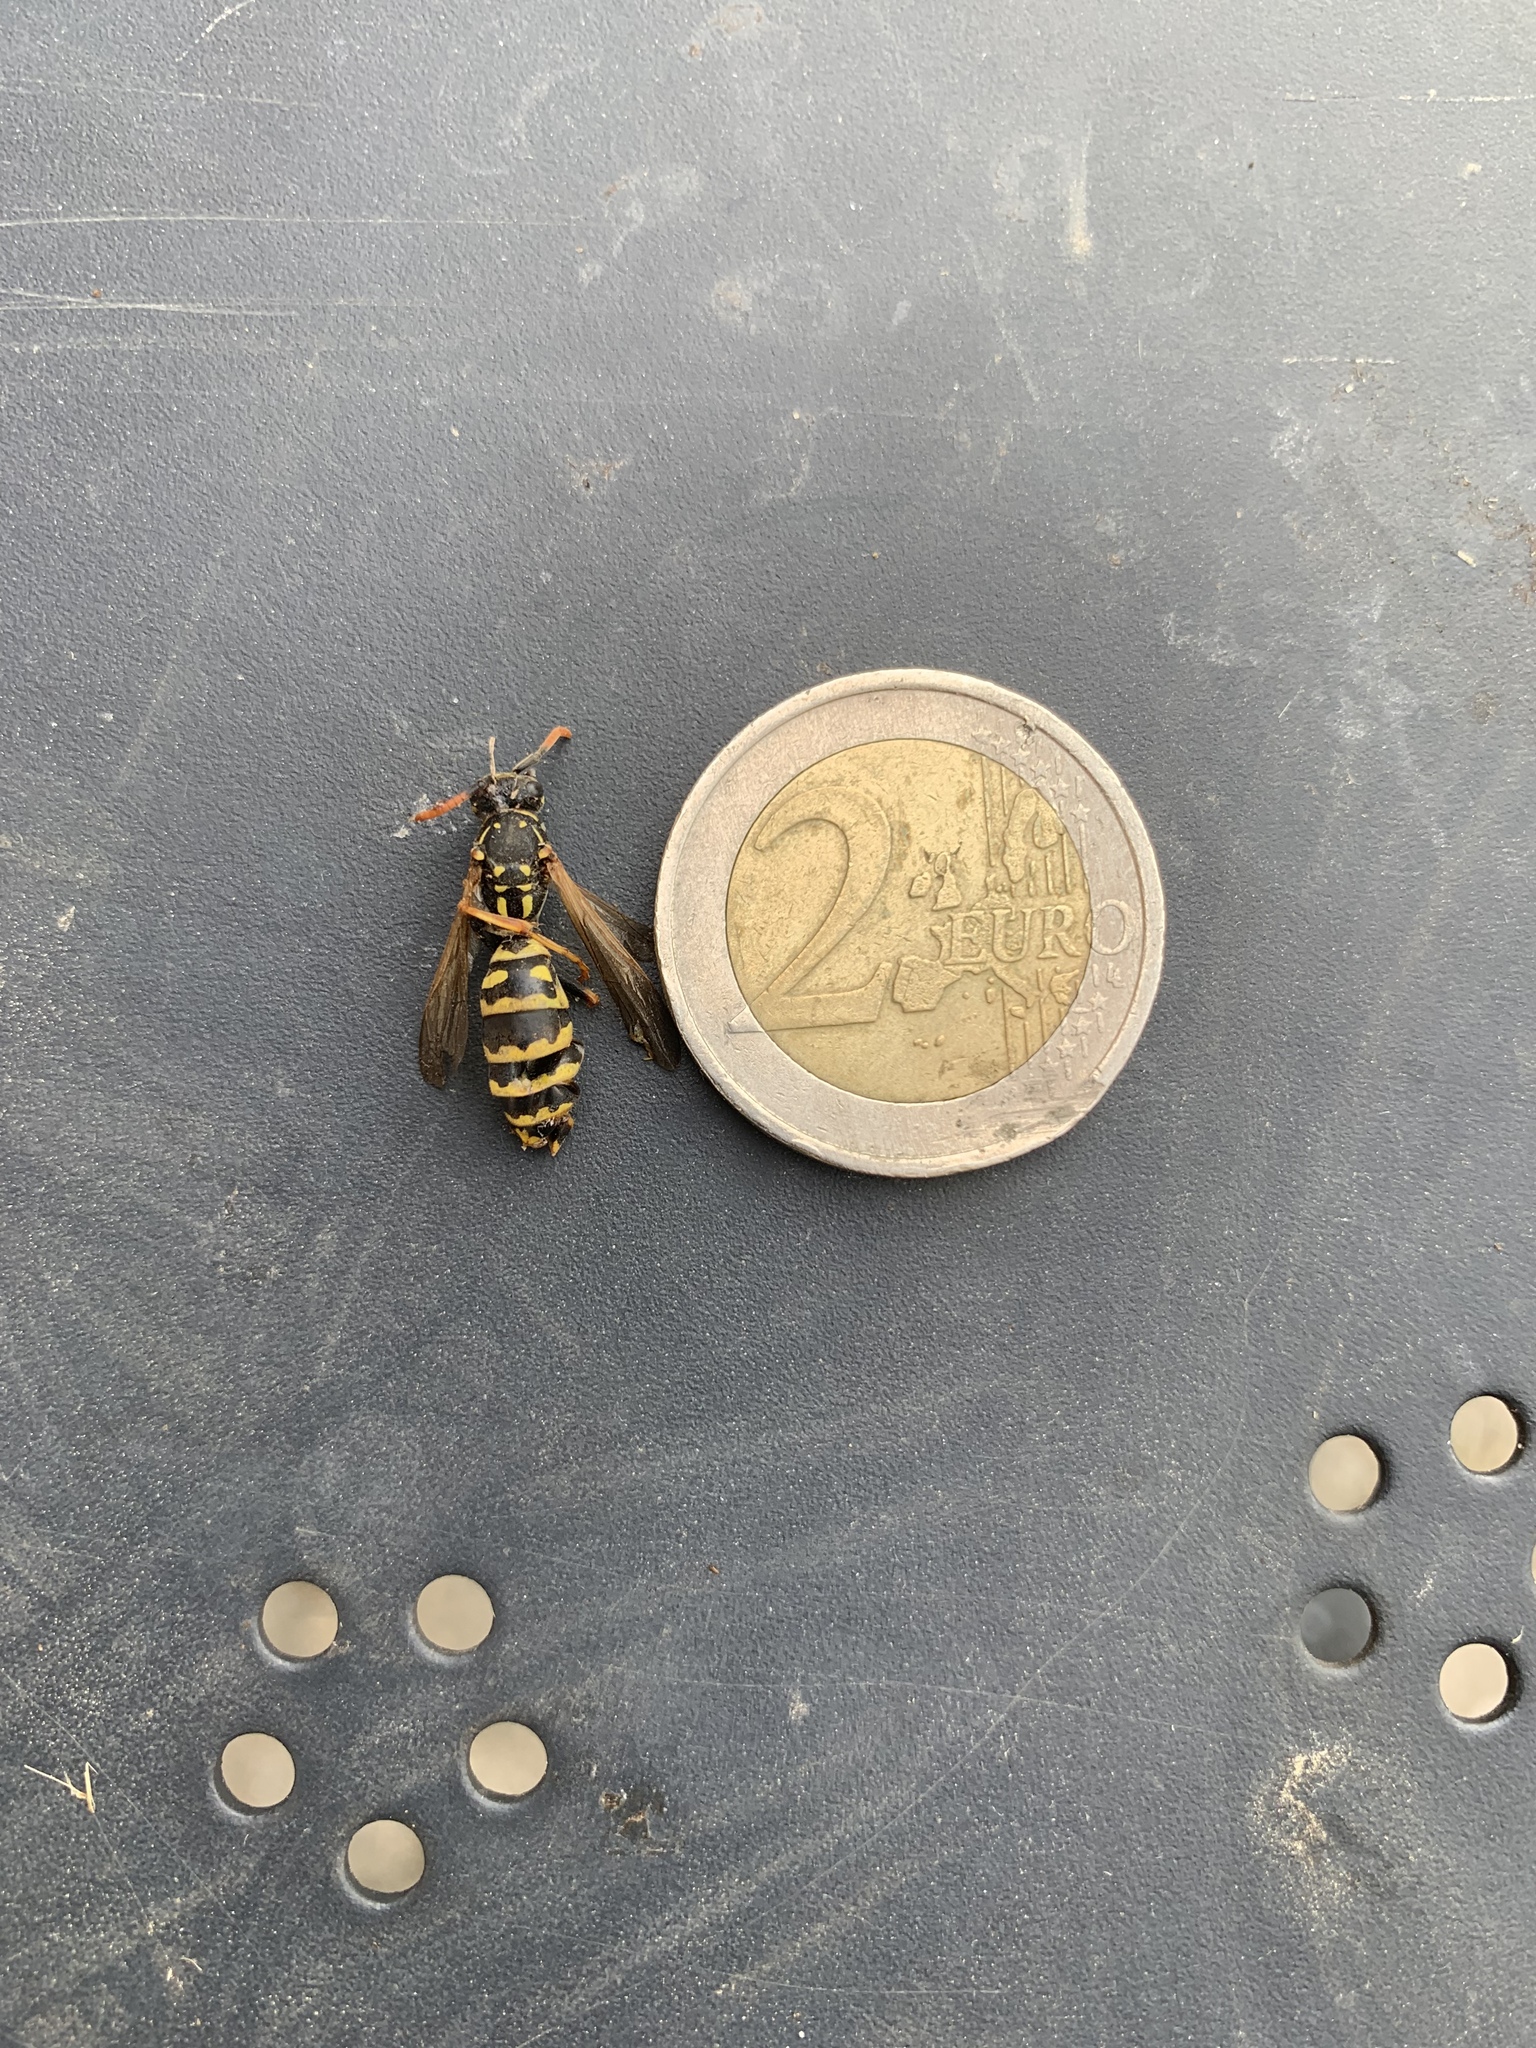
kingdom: Animalia
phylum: Arthropoda
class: Insecta
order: Hymenoptera
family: Eumenidae
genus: Polistes
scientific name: Polistes dominula
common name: Paper wasp
